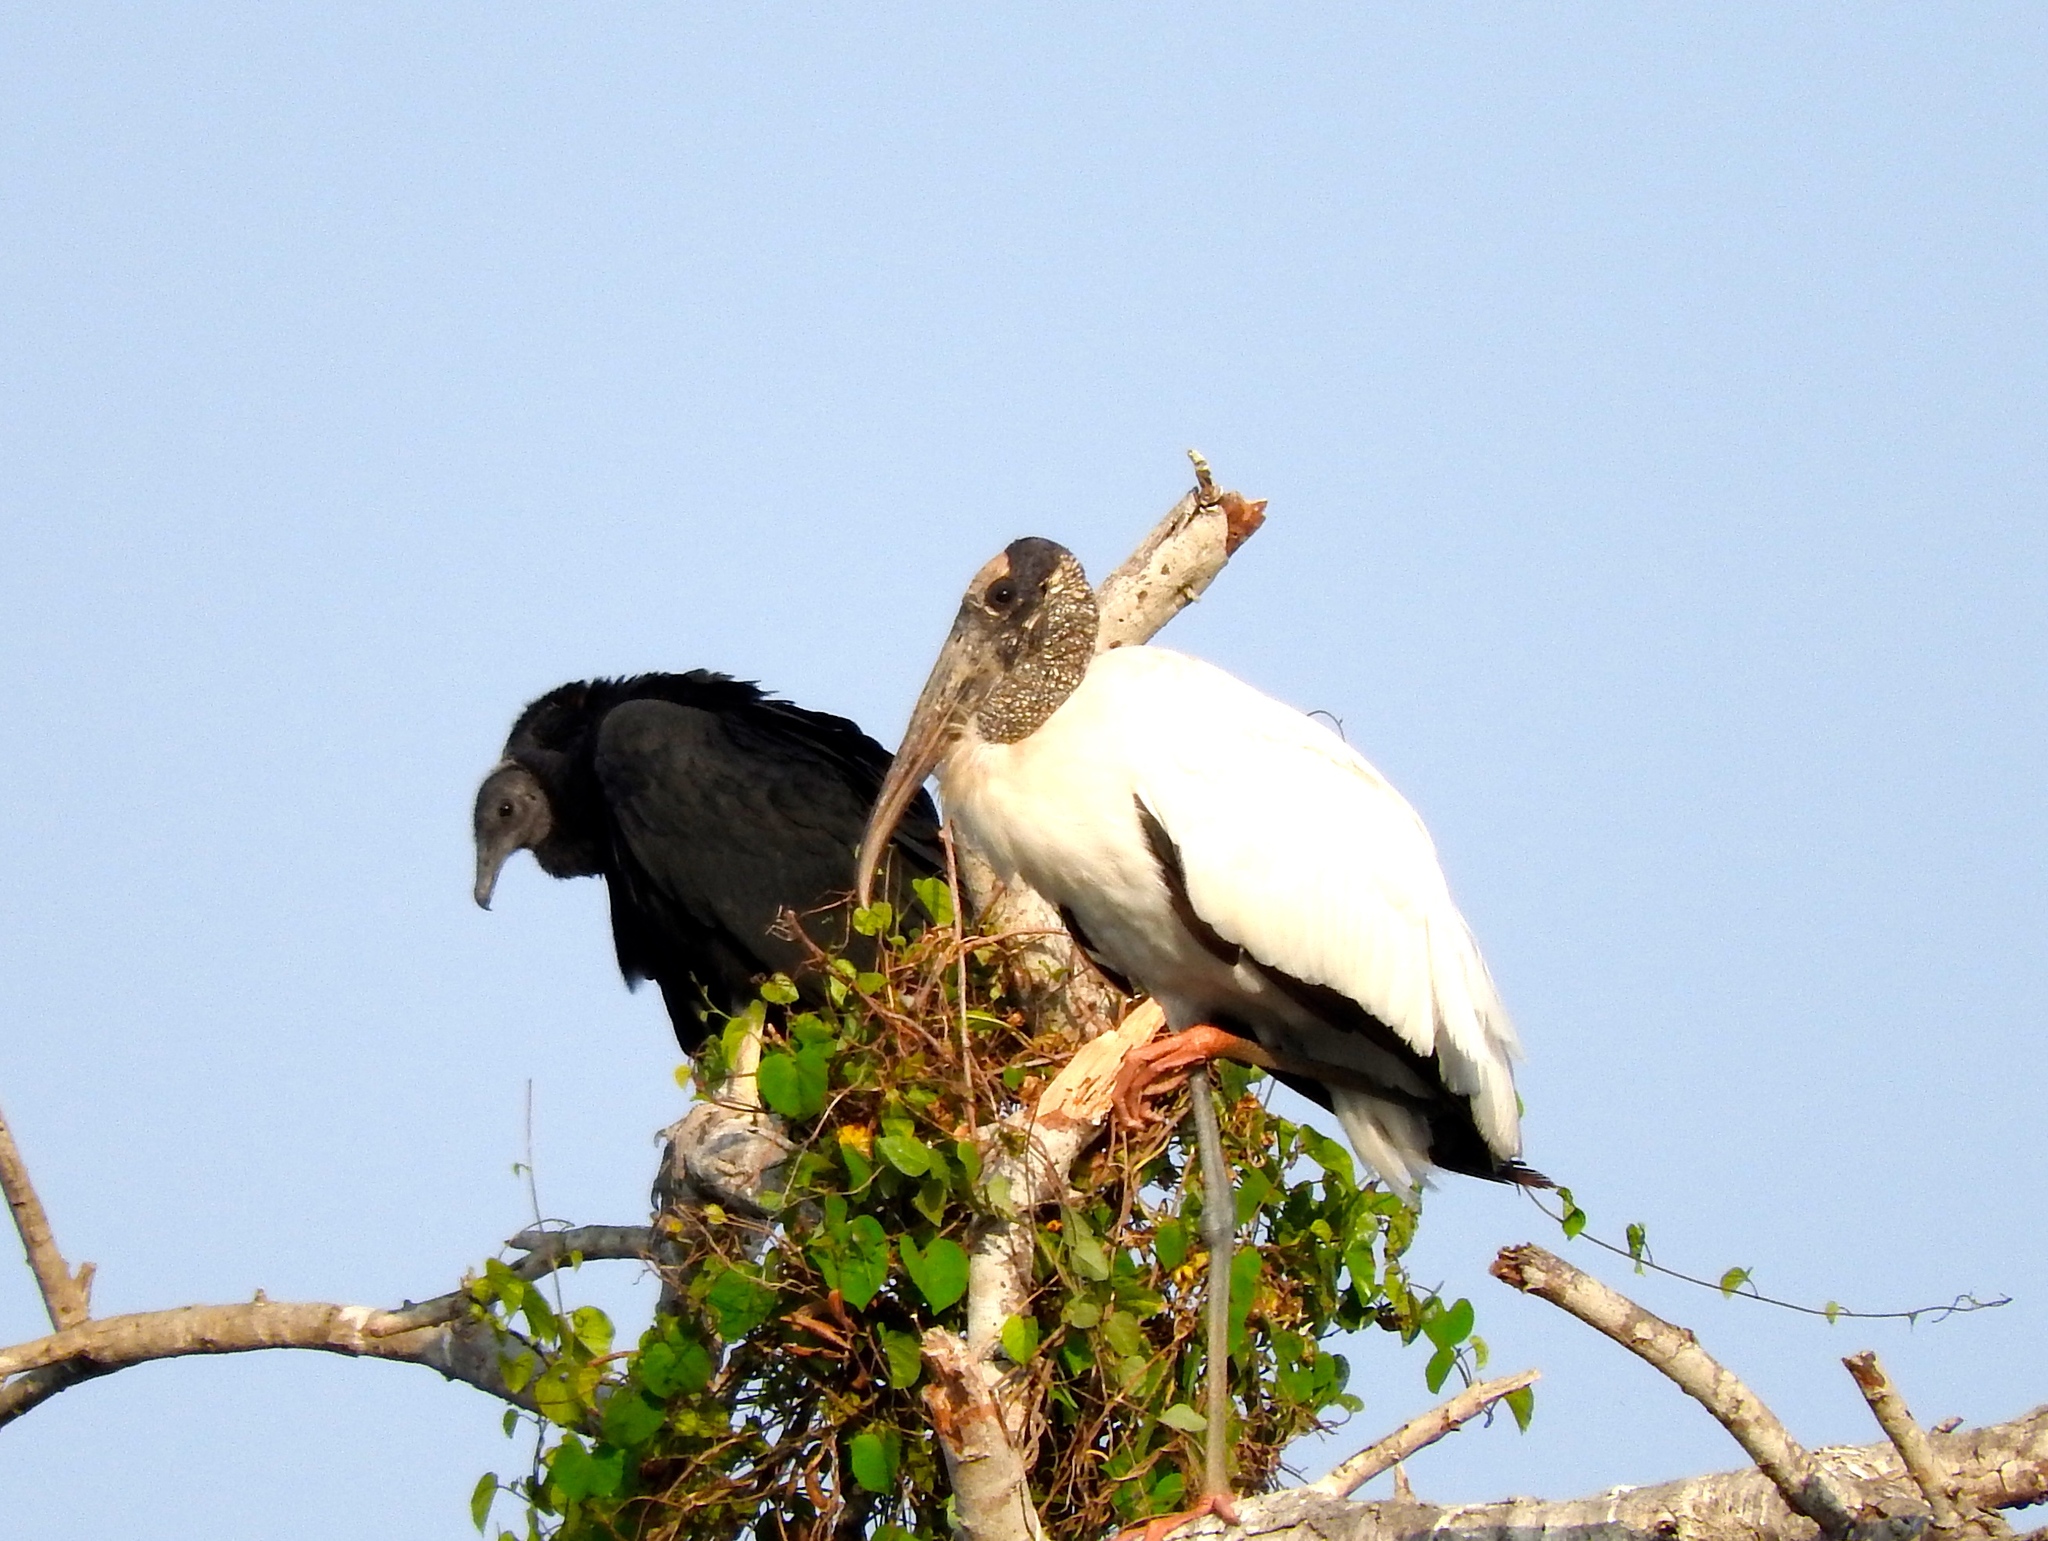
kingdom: Animalia
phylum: Chordata
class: Aves
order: Ciconiiformes
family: Ciconiidae
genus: Mycteria
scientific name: Mycteria americana
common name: Wood stork
